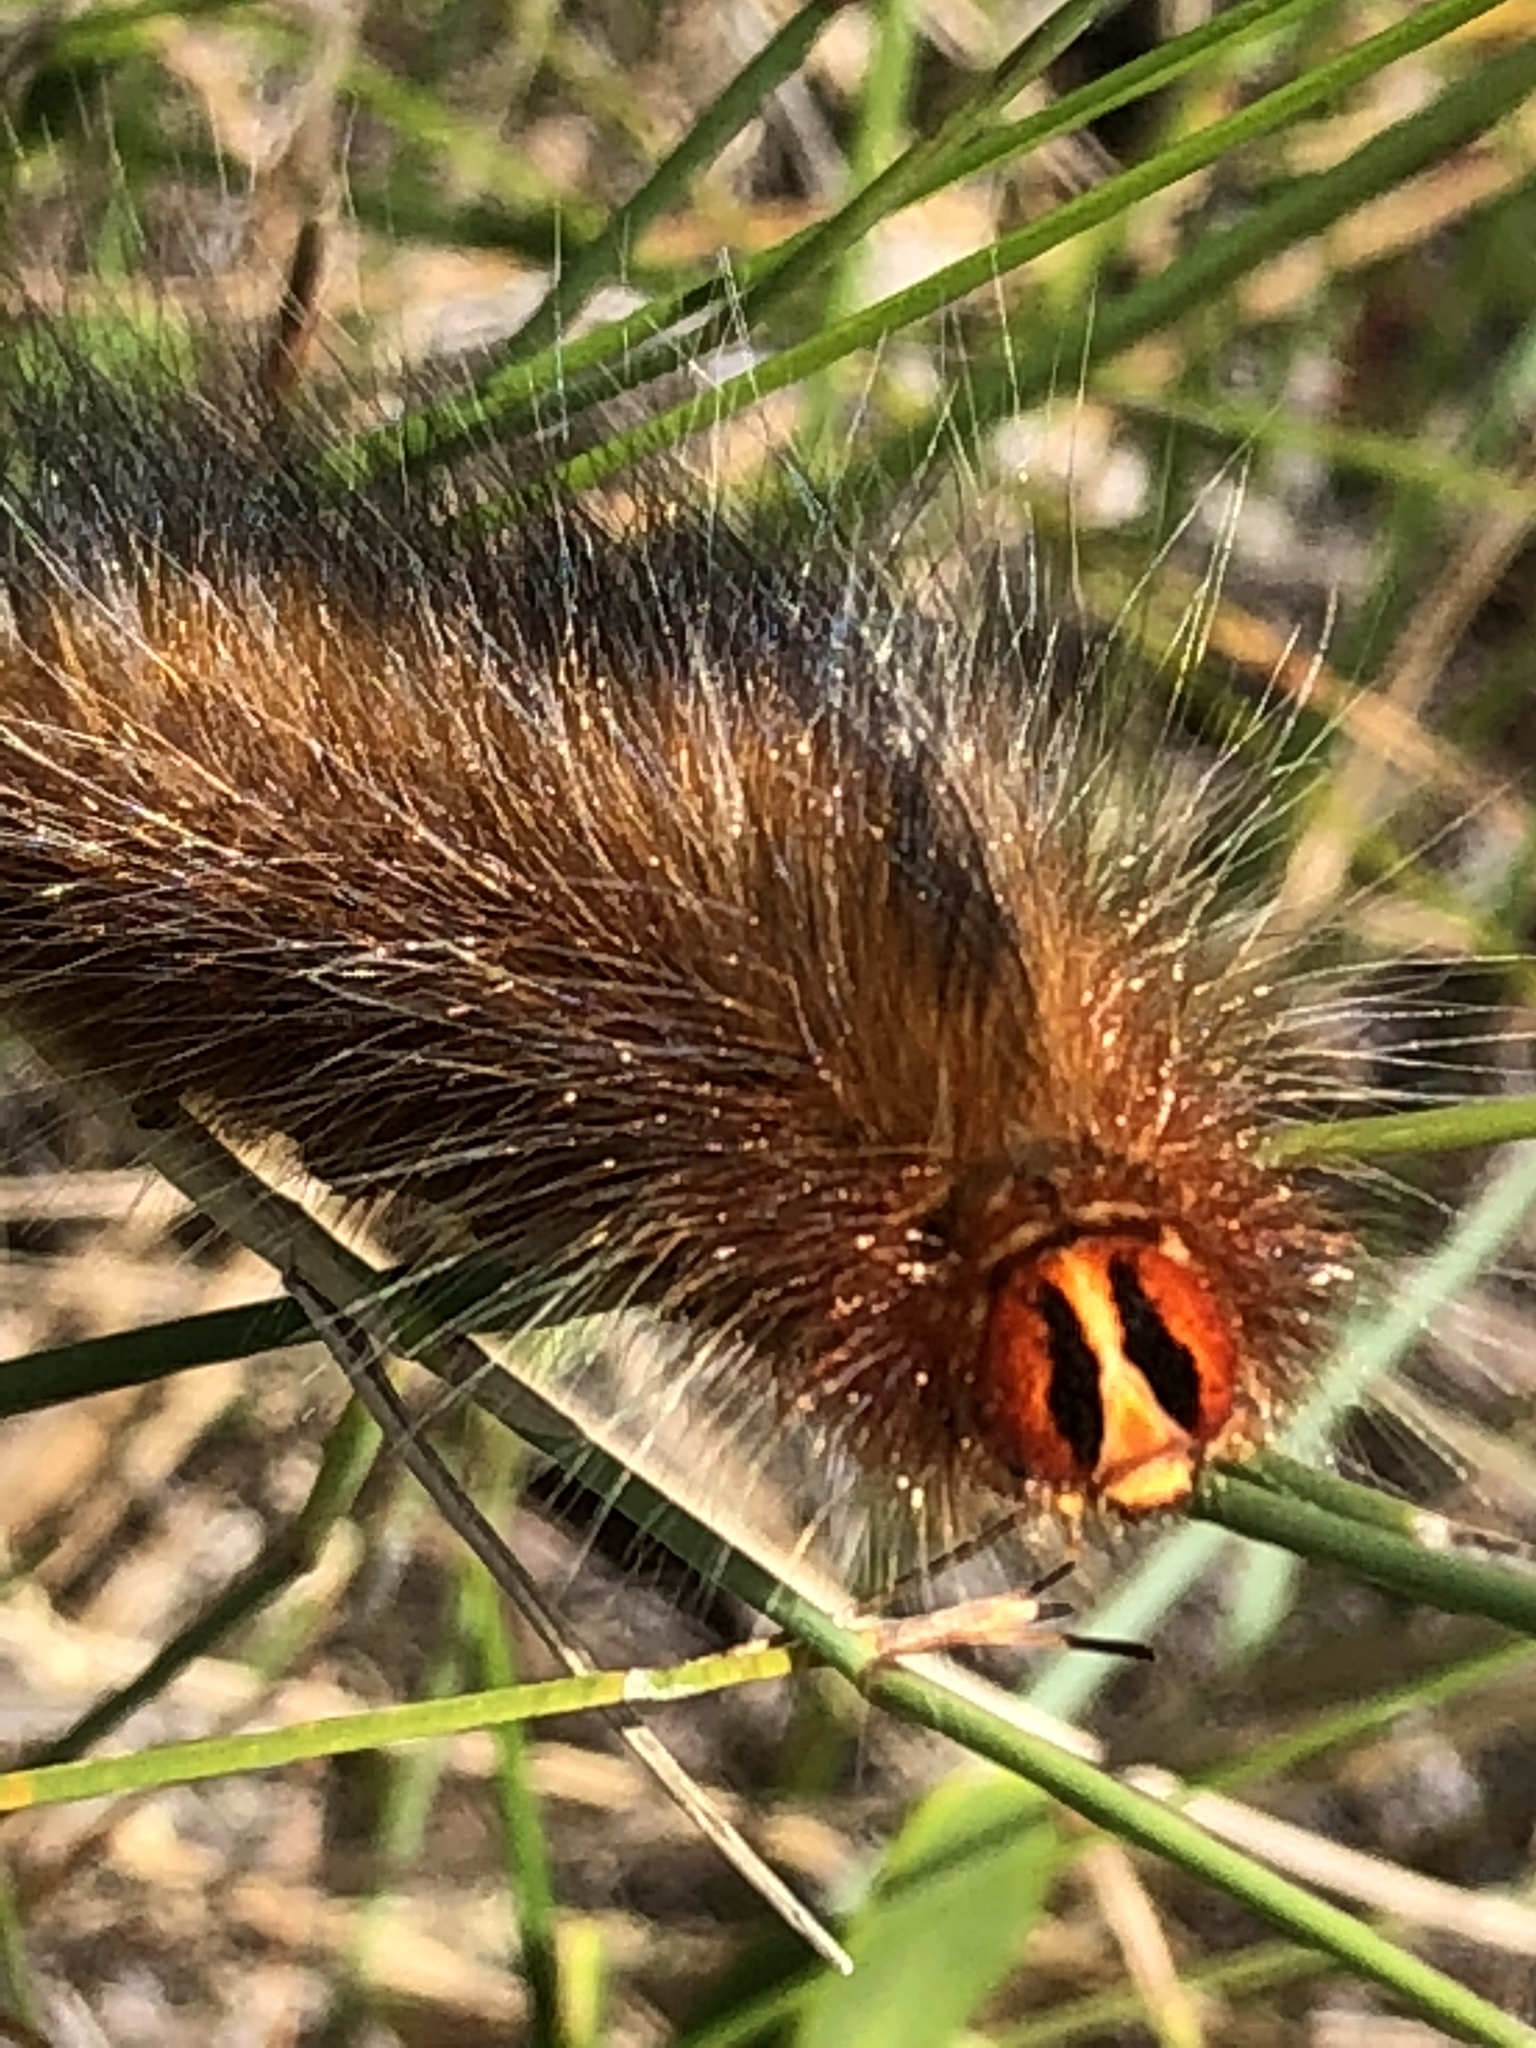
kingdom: Animalia
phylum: Arthropoda
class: Insecta
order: Lepidoptera
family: Lasiocampidae
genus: Mesocelis
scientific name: Mesocelis monticola
